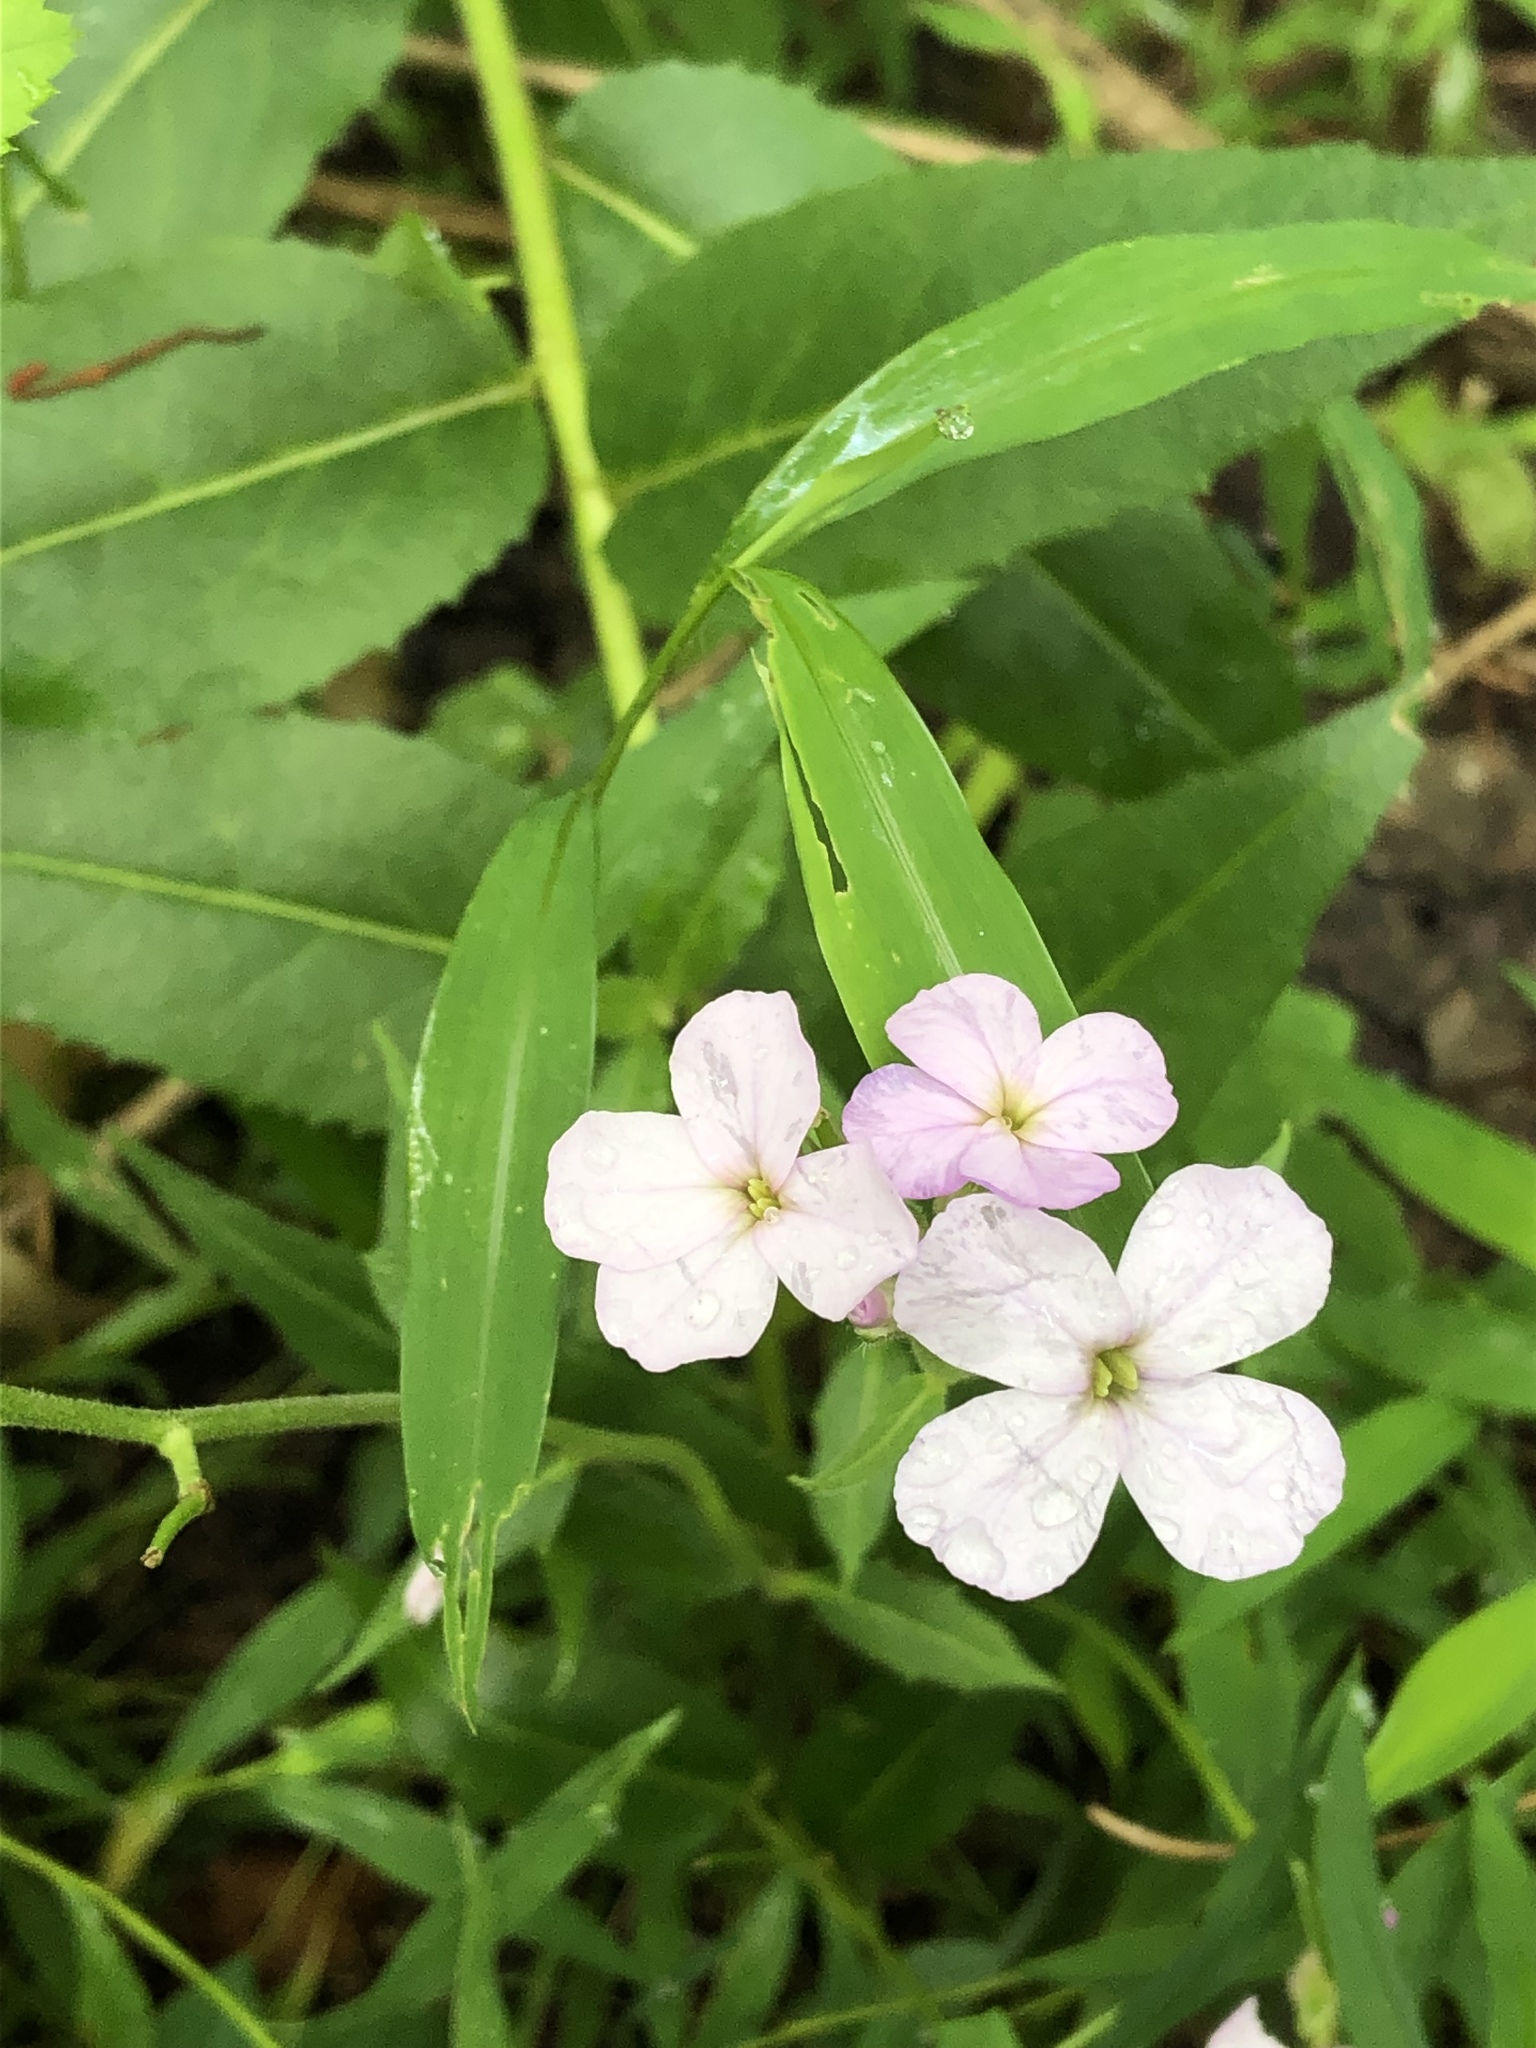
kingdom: Plantae
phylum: Tracheophyta
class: Magnoliopsida
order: Brassicales
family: Brassicaceae
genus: Hesperis
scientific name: Hesperis matronalis
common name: Dame's-violet
